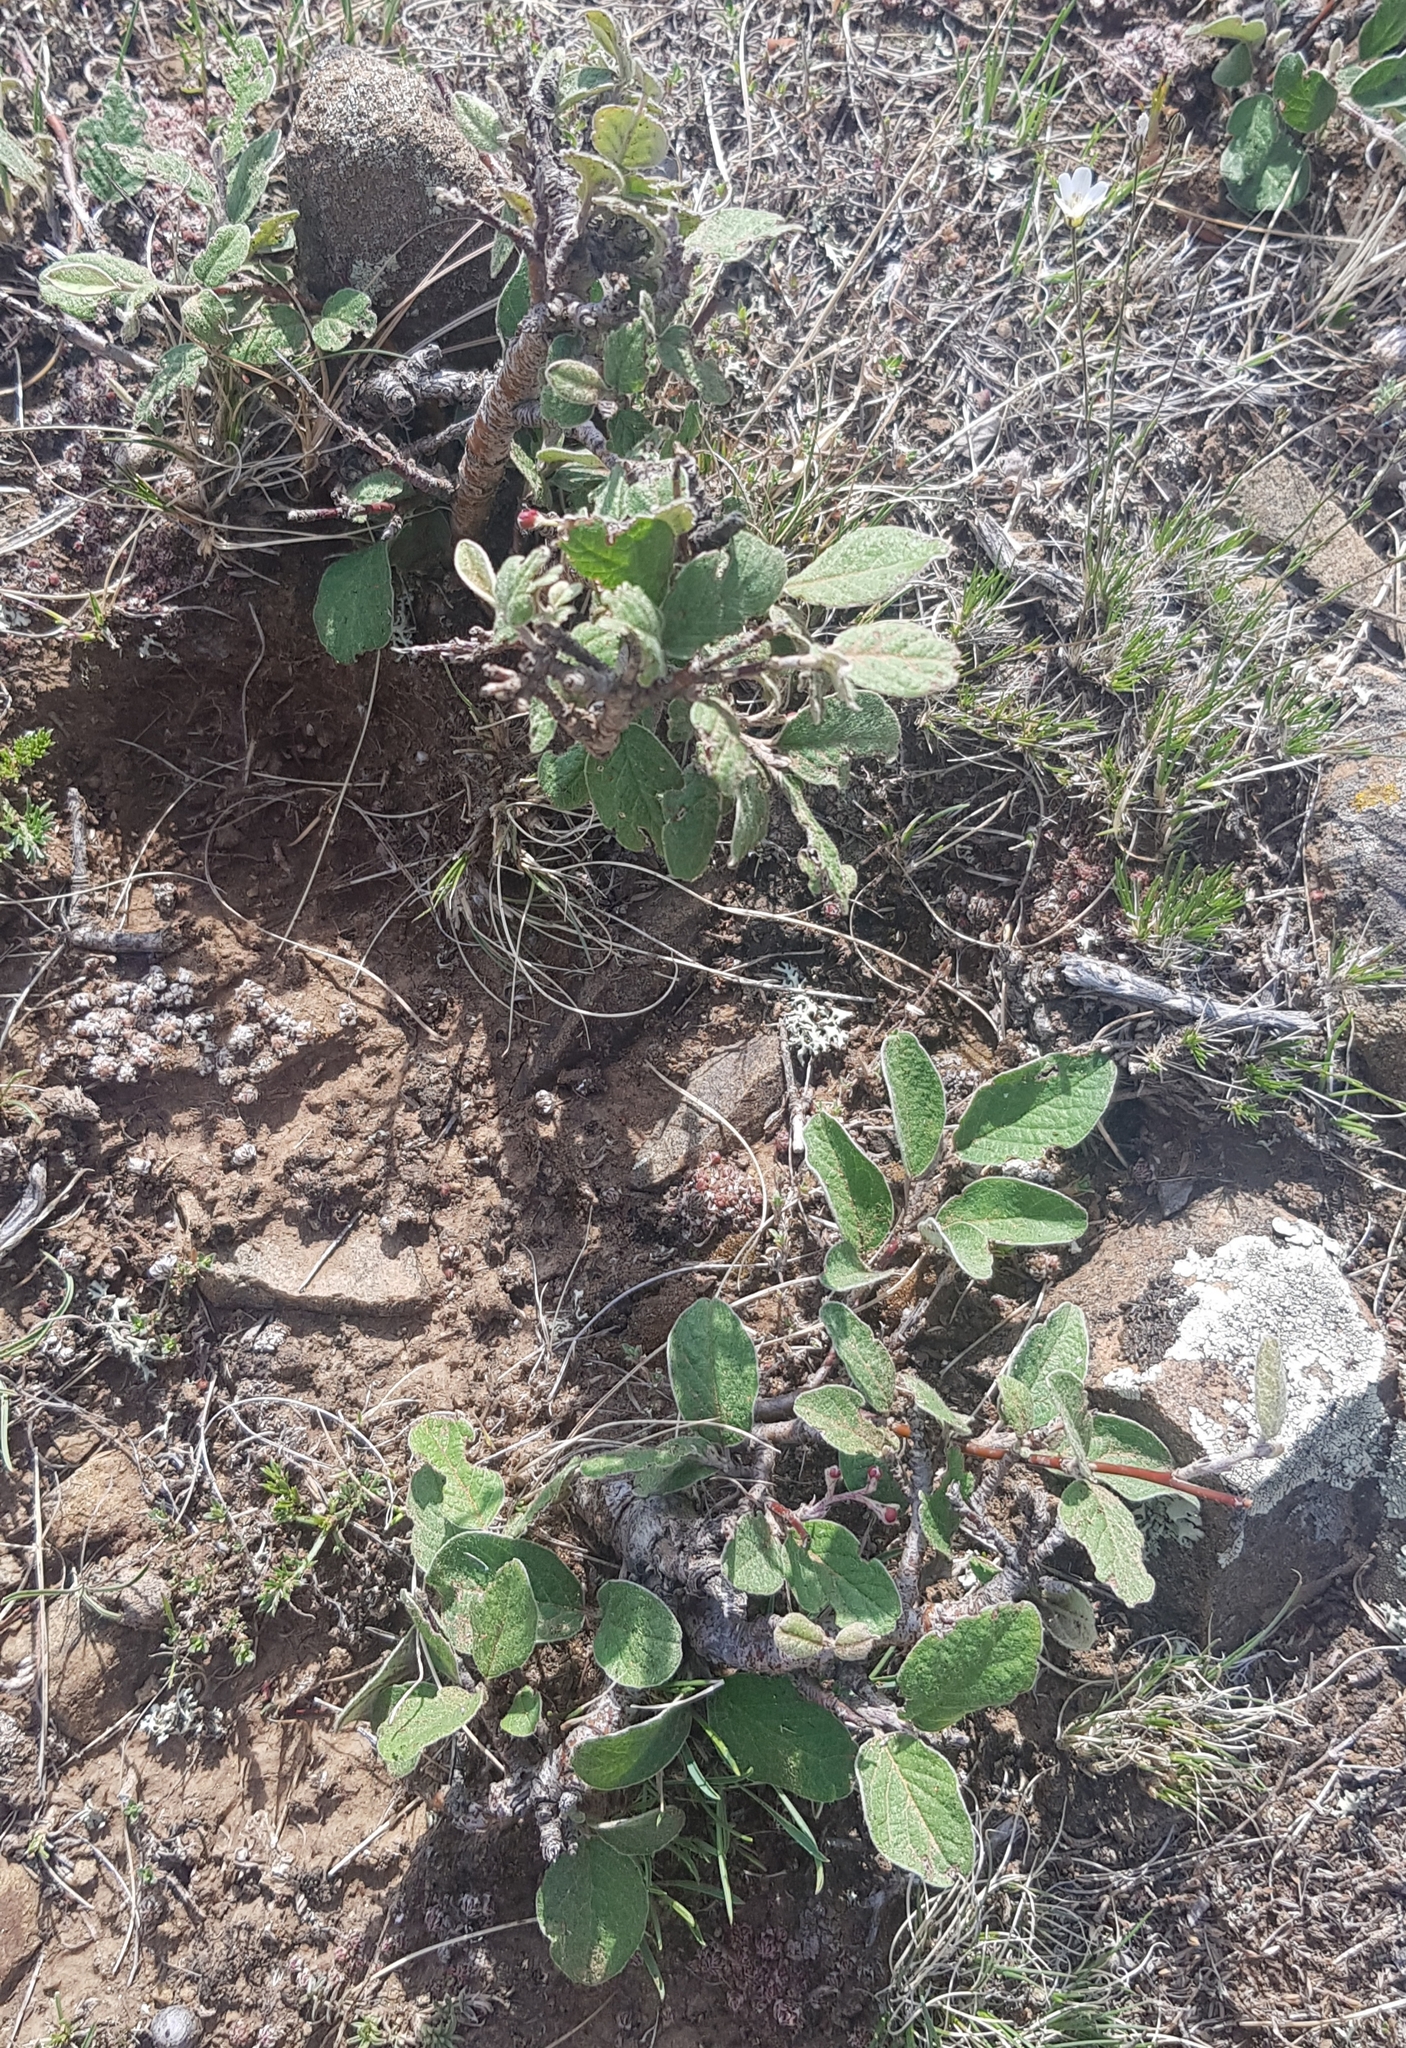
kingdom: Plantae
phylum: Tracheophyta
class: Magnoliopsida
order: Rosales
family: Rosaceae
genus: Cotoneaster
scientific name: Cotoneaster melanocarpus
